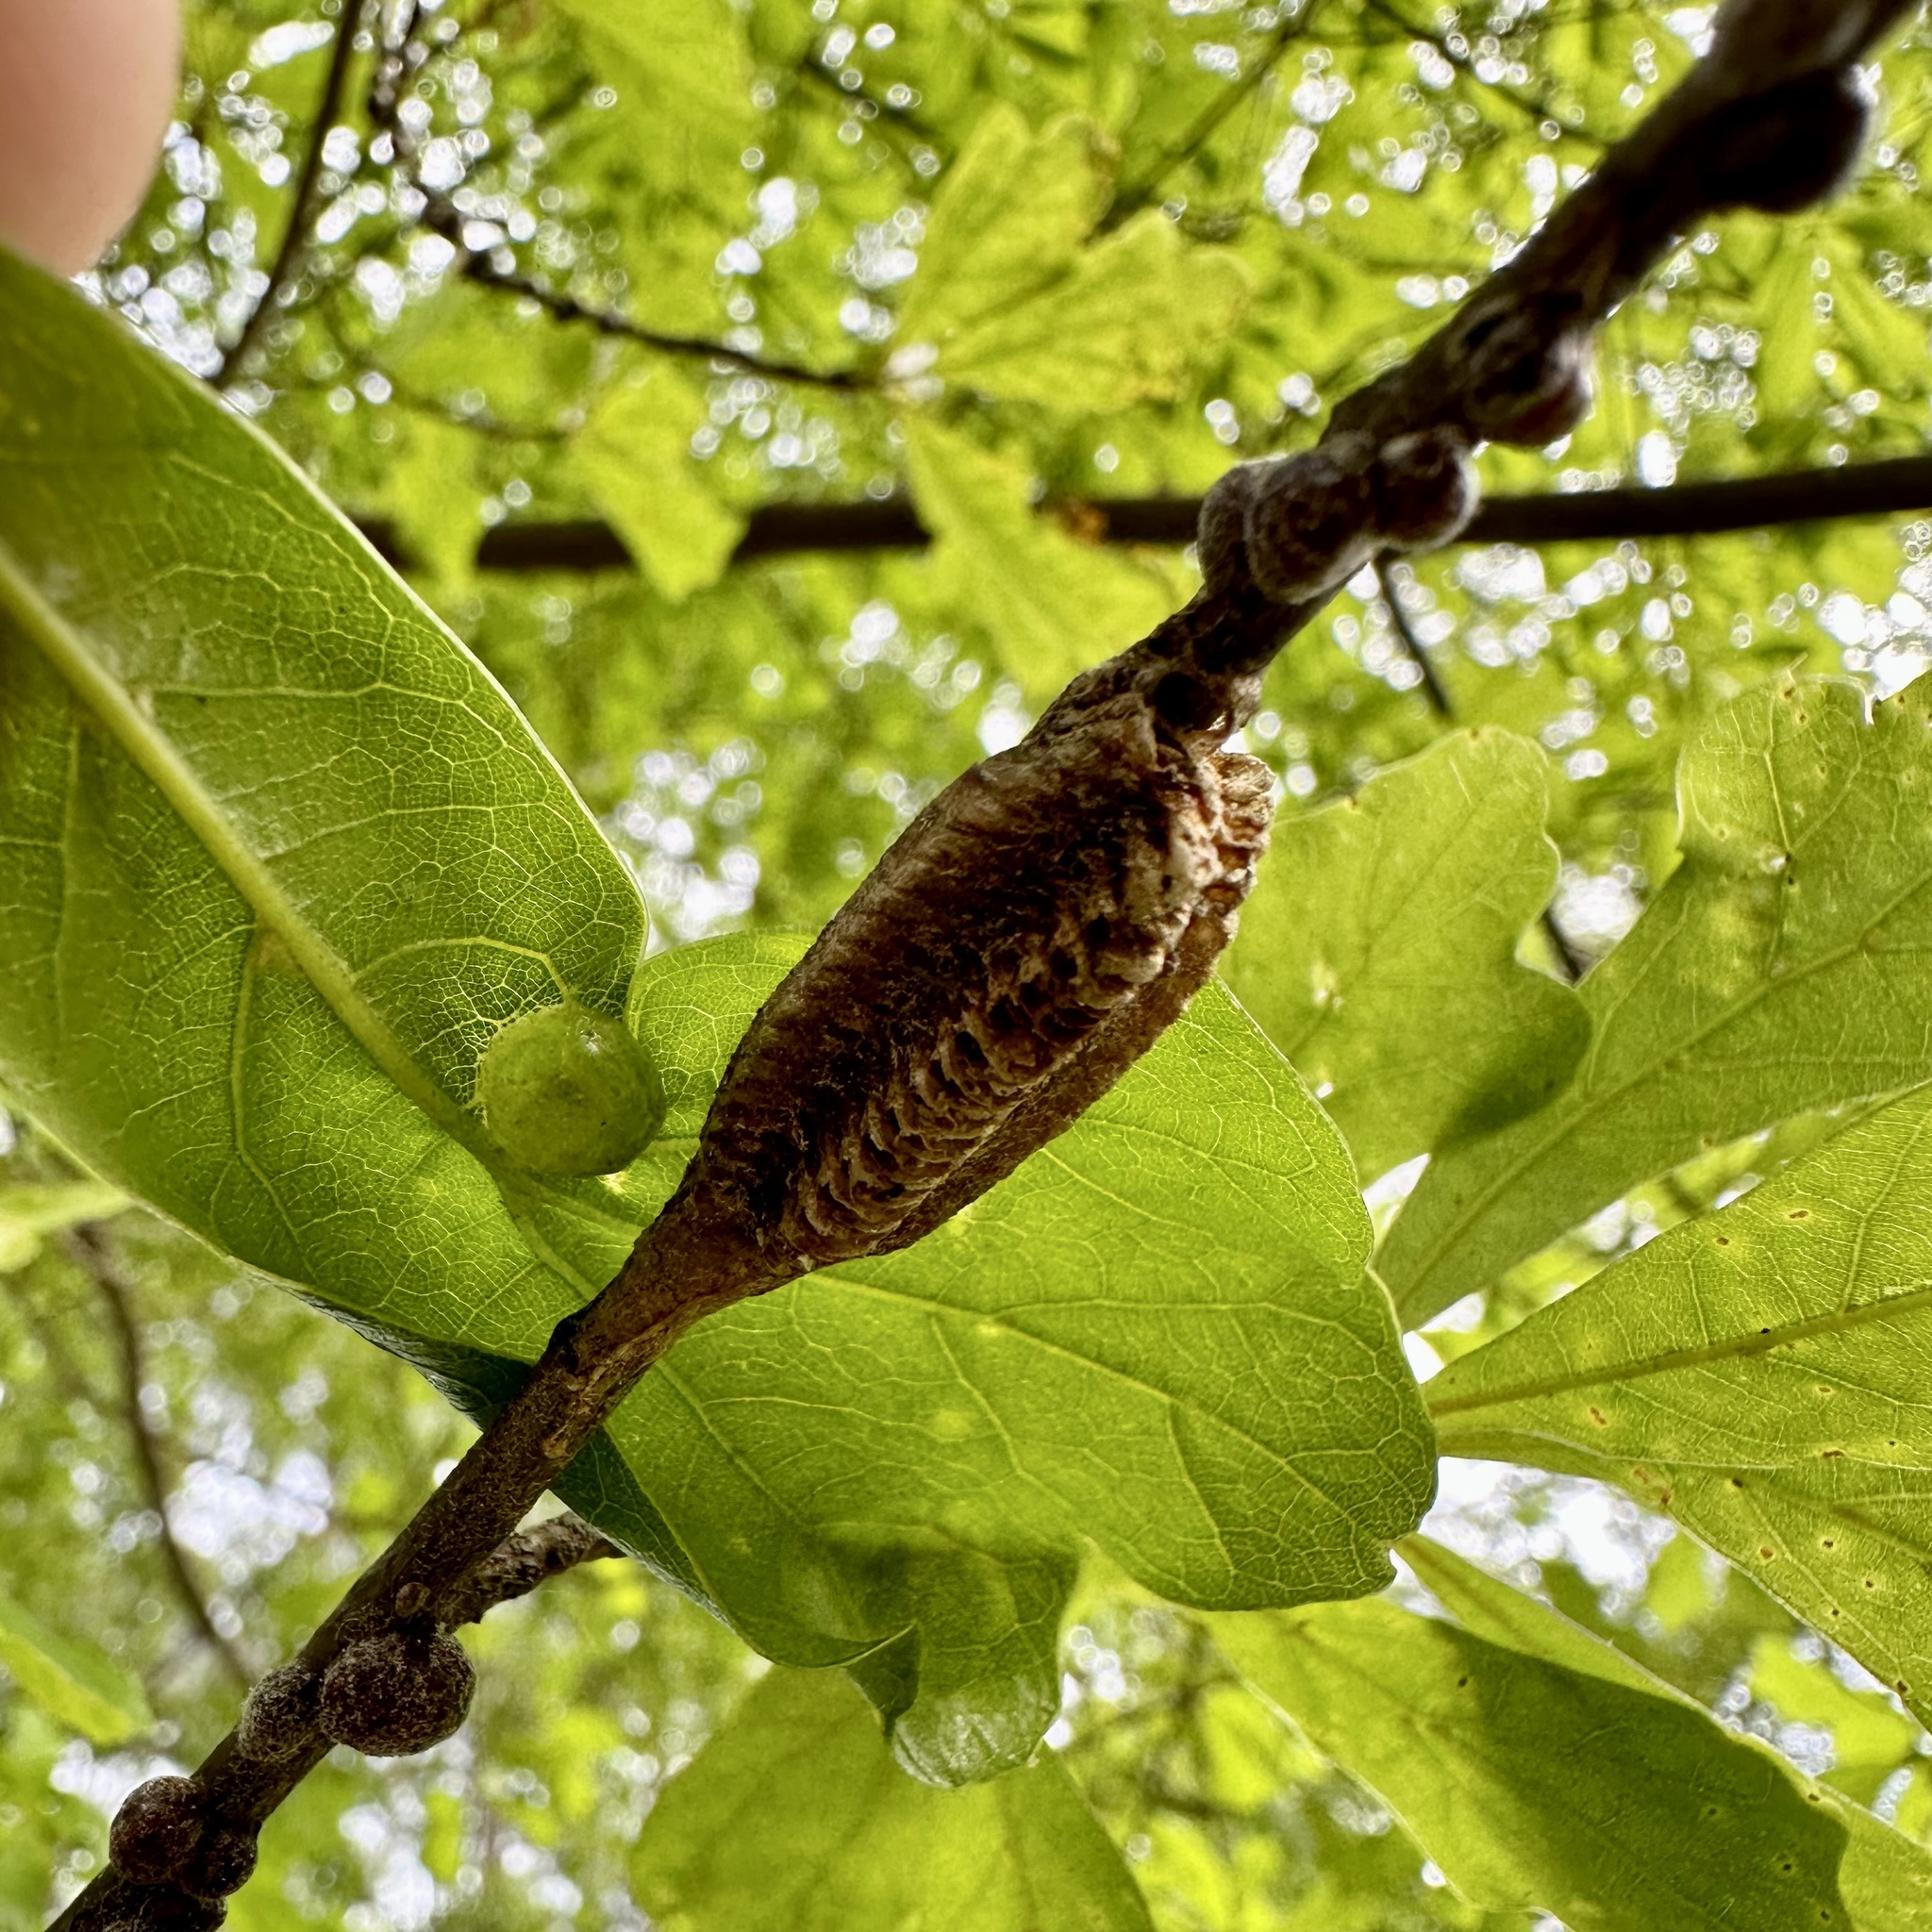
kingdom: Animalia
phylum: Arthropoda
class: Insecta
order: Mantodea
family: Mantidae
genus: Stagmomantis
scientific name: Stagmomantis carolina
